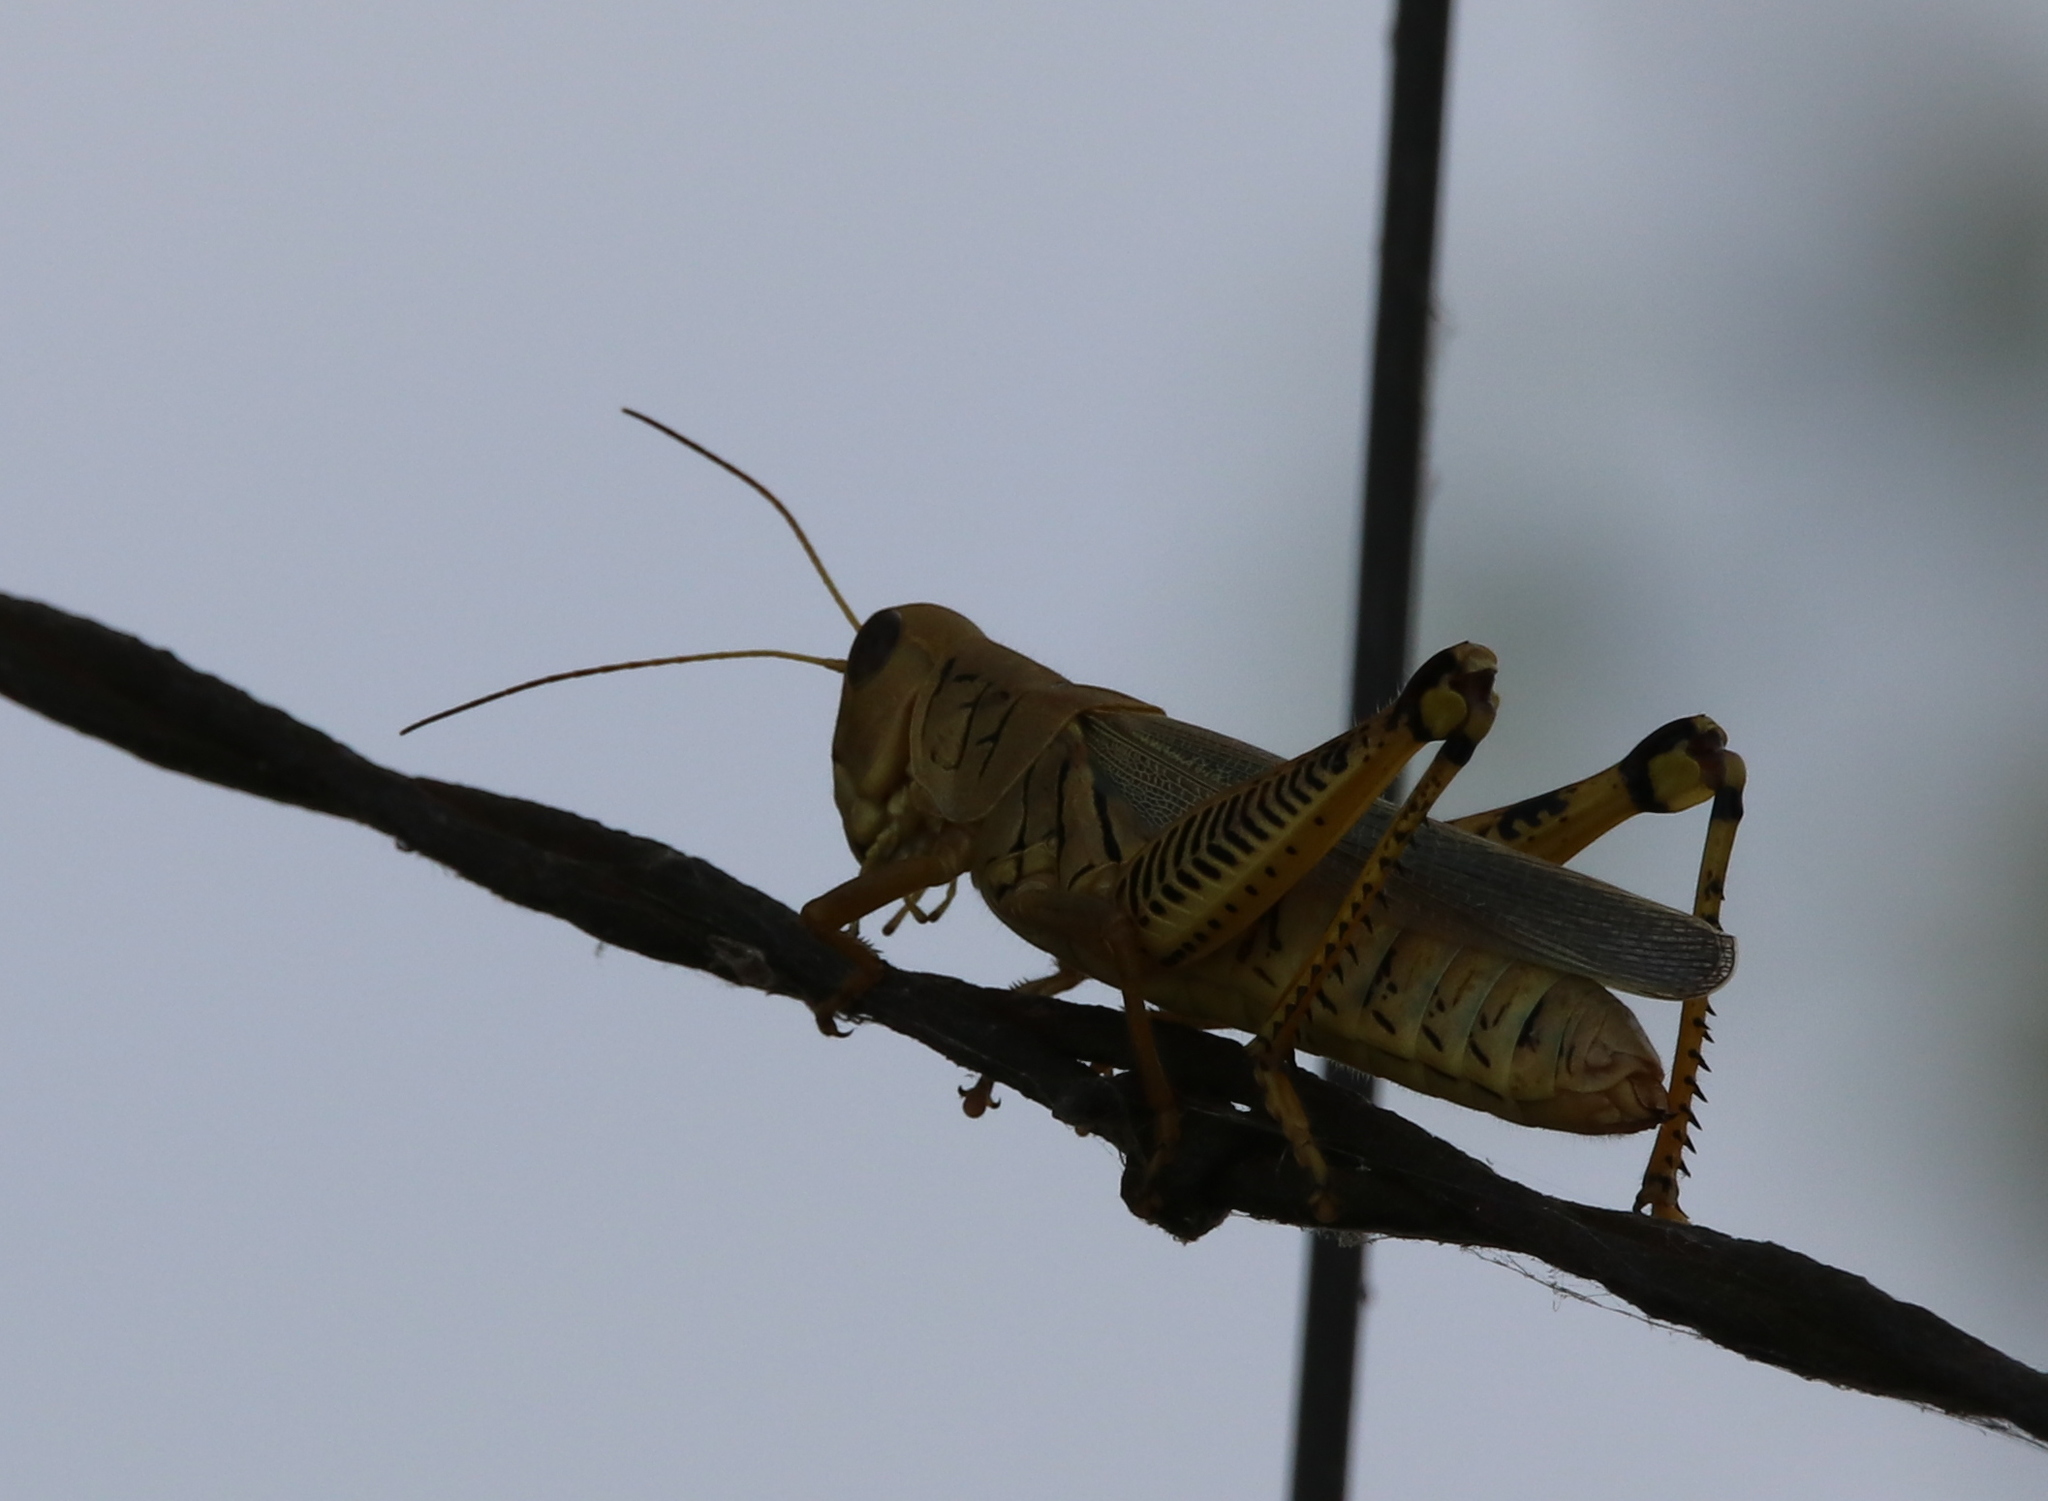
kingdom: Animalia
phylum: Arthropoda
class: Insecta
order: Orthoptera
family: Acrididae
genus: Melanoplus
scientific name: Melanoplus differentialis
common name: Differential grasshopper
